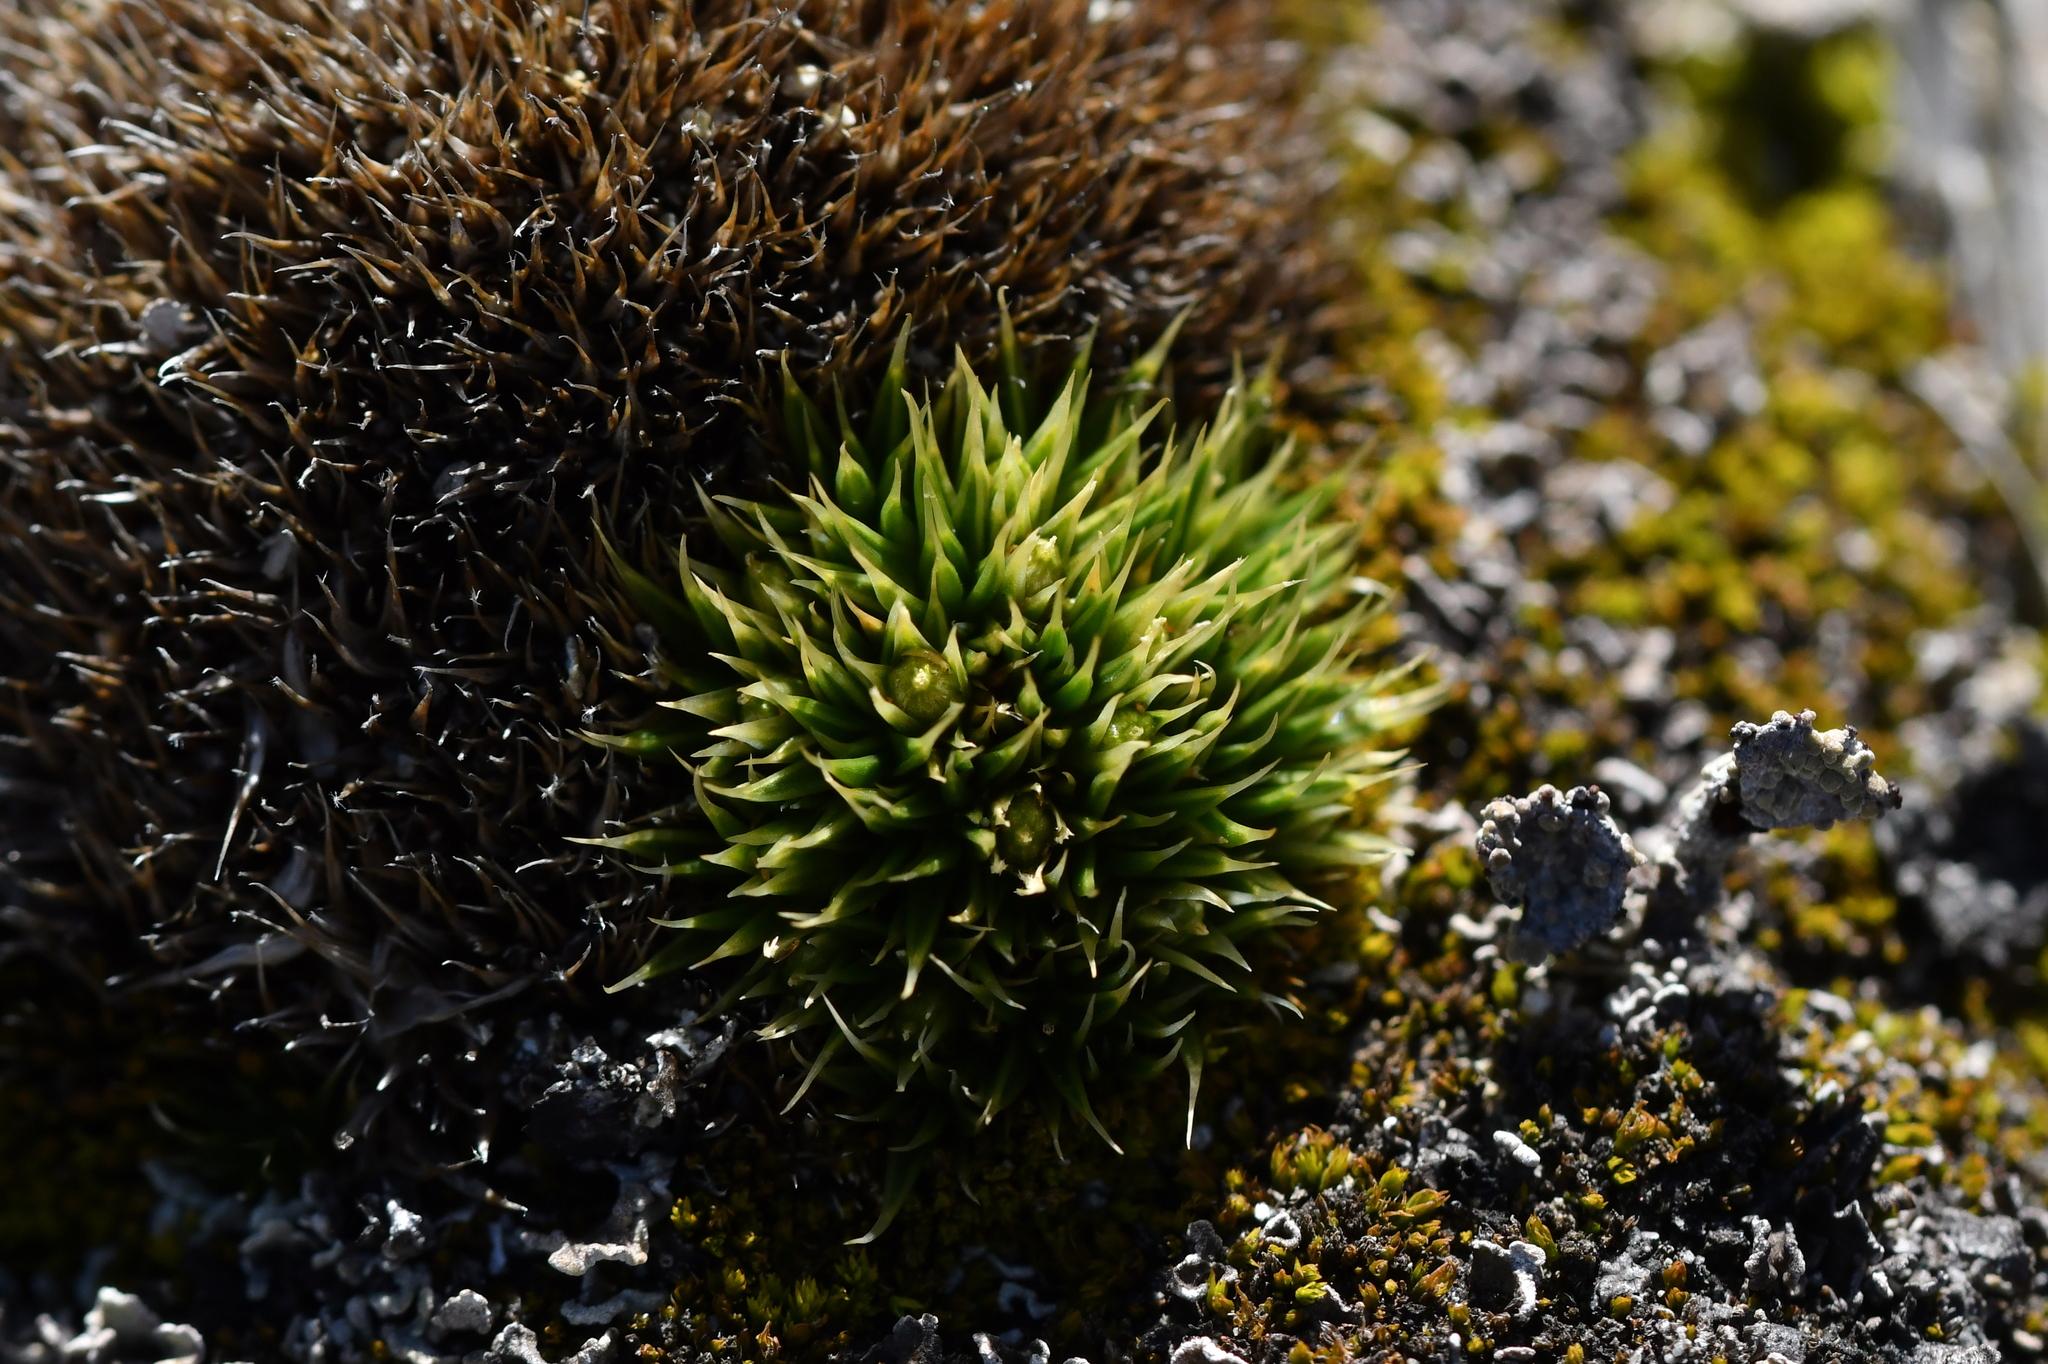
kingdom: Plantae
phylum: Tracheophyta
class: Magnoliopsida
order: Caryophyllales
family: Caryophyllaceae
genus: Colobanthus
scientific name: Colobanthus acicularis
